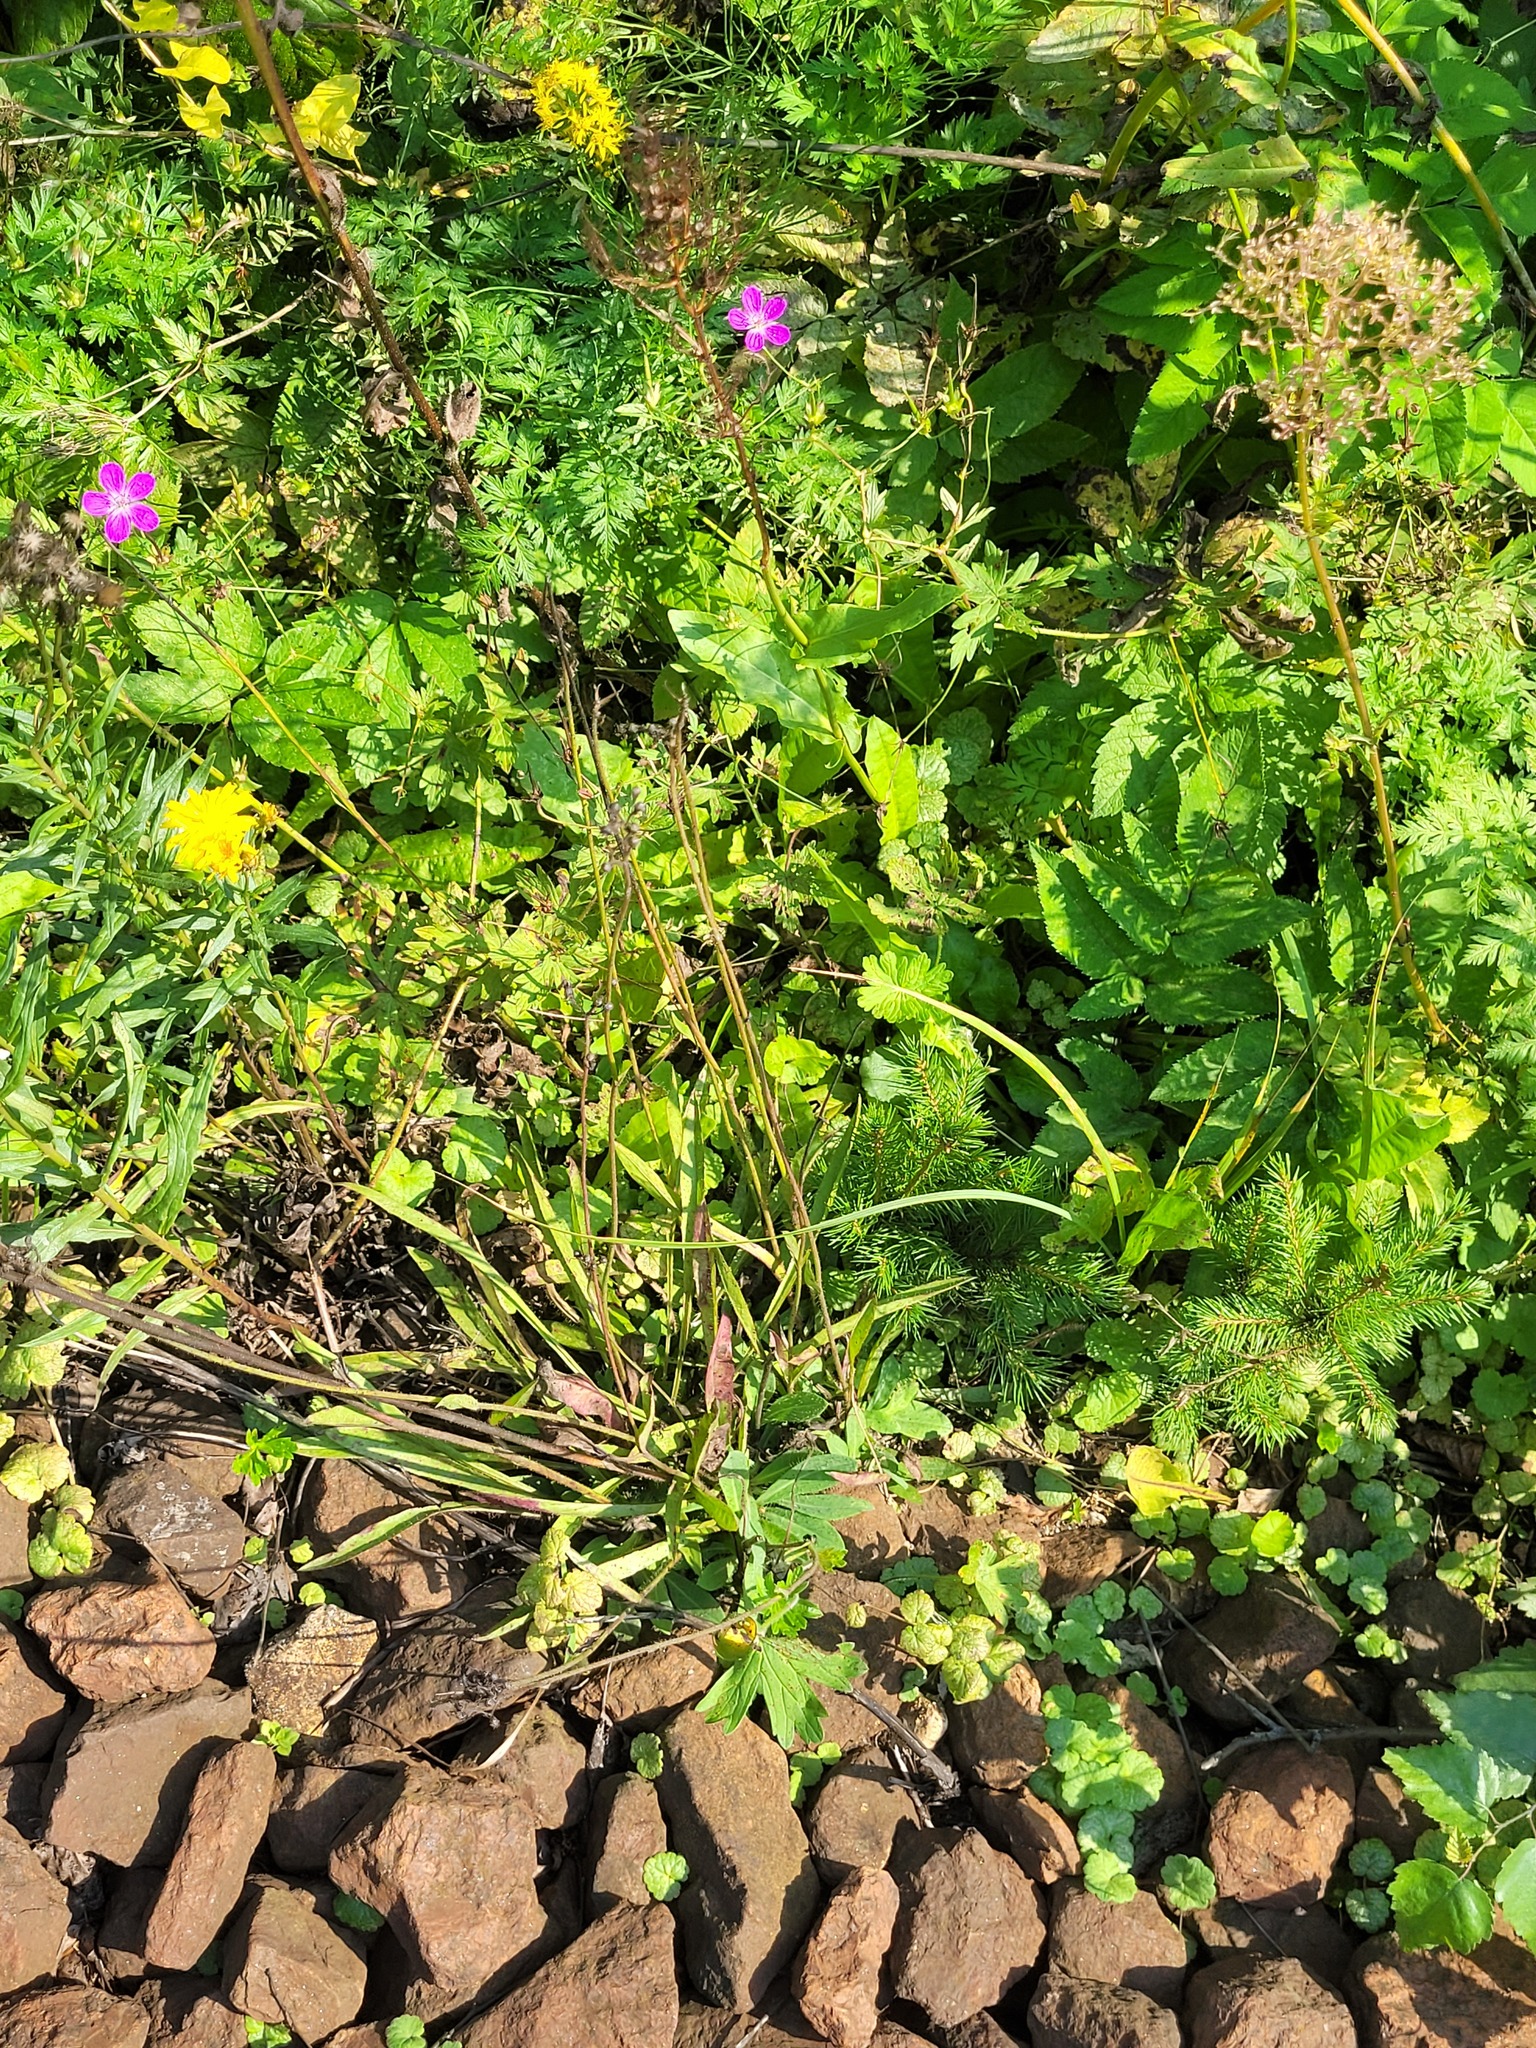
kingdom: Plantae
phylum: Tracheophyta
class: Magnoliopsida
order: Asterales
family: Asteraceae
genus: Pilosella
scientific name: Pilosella
